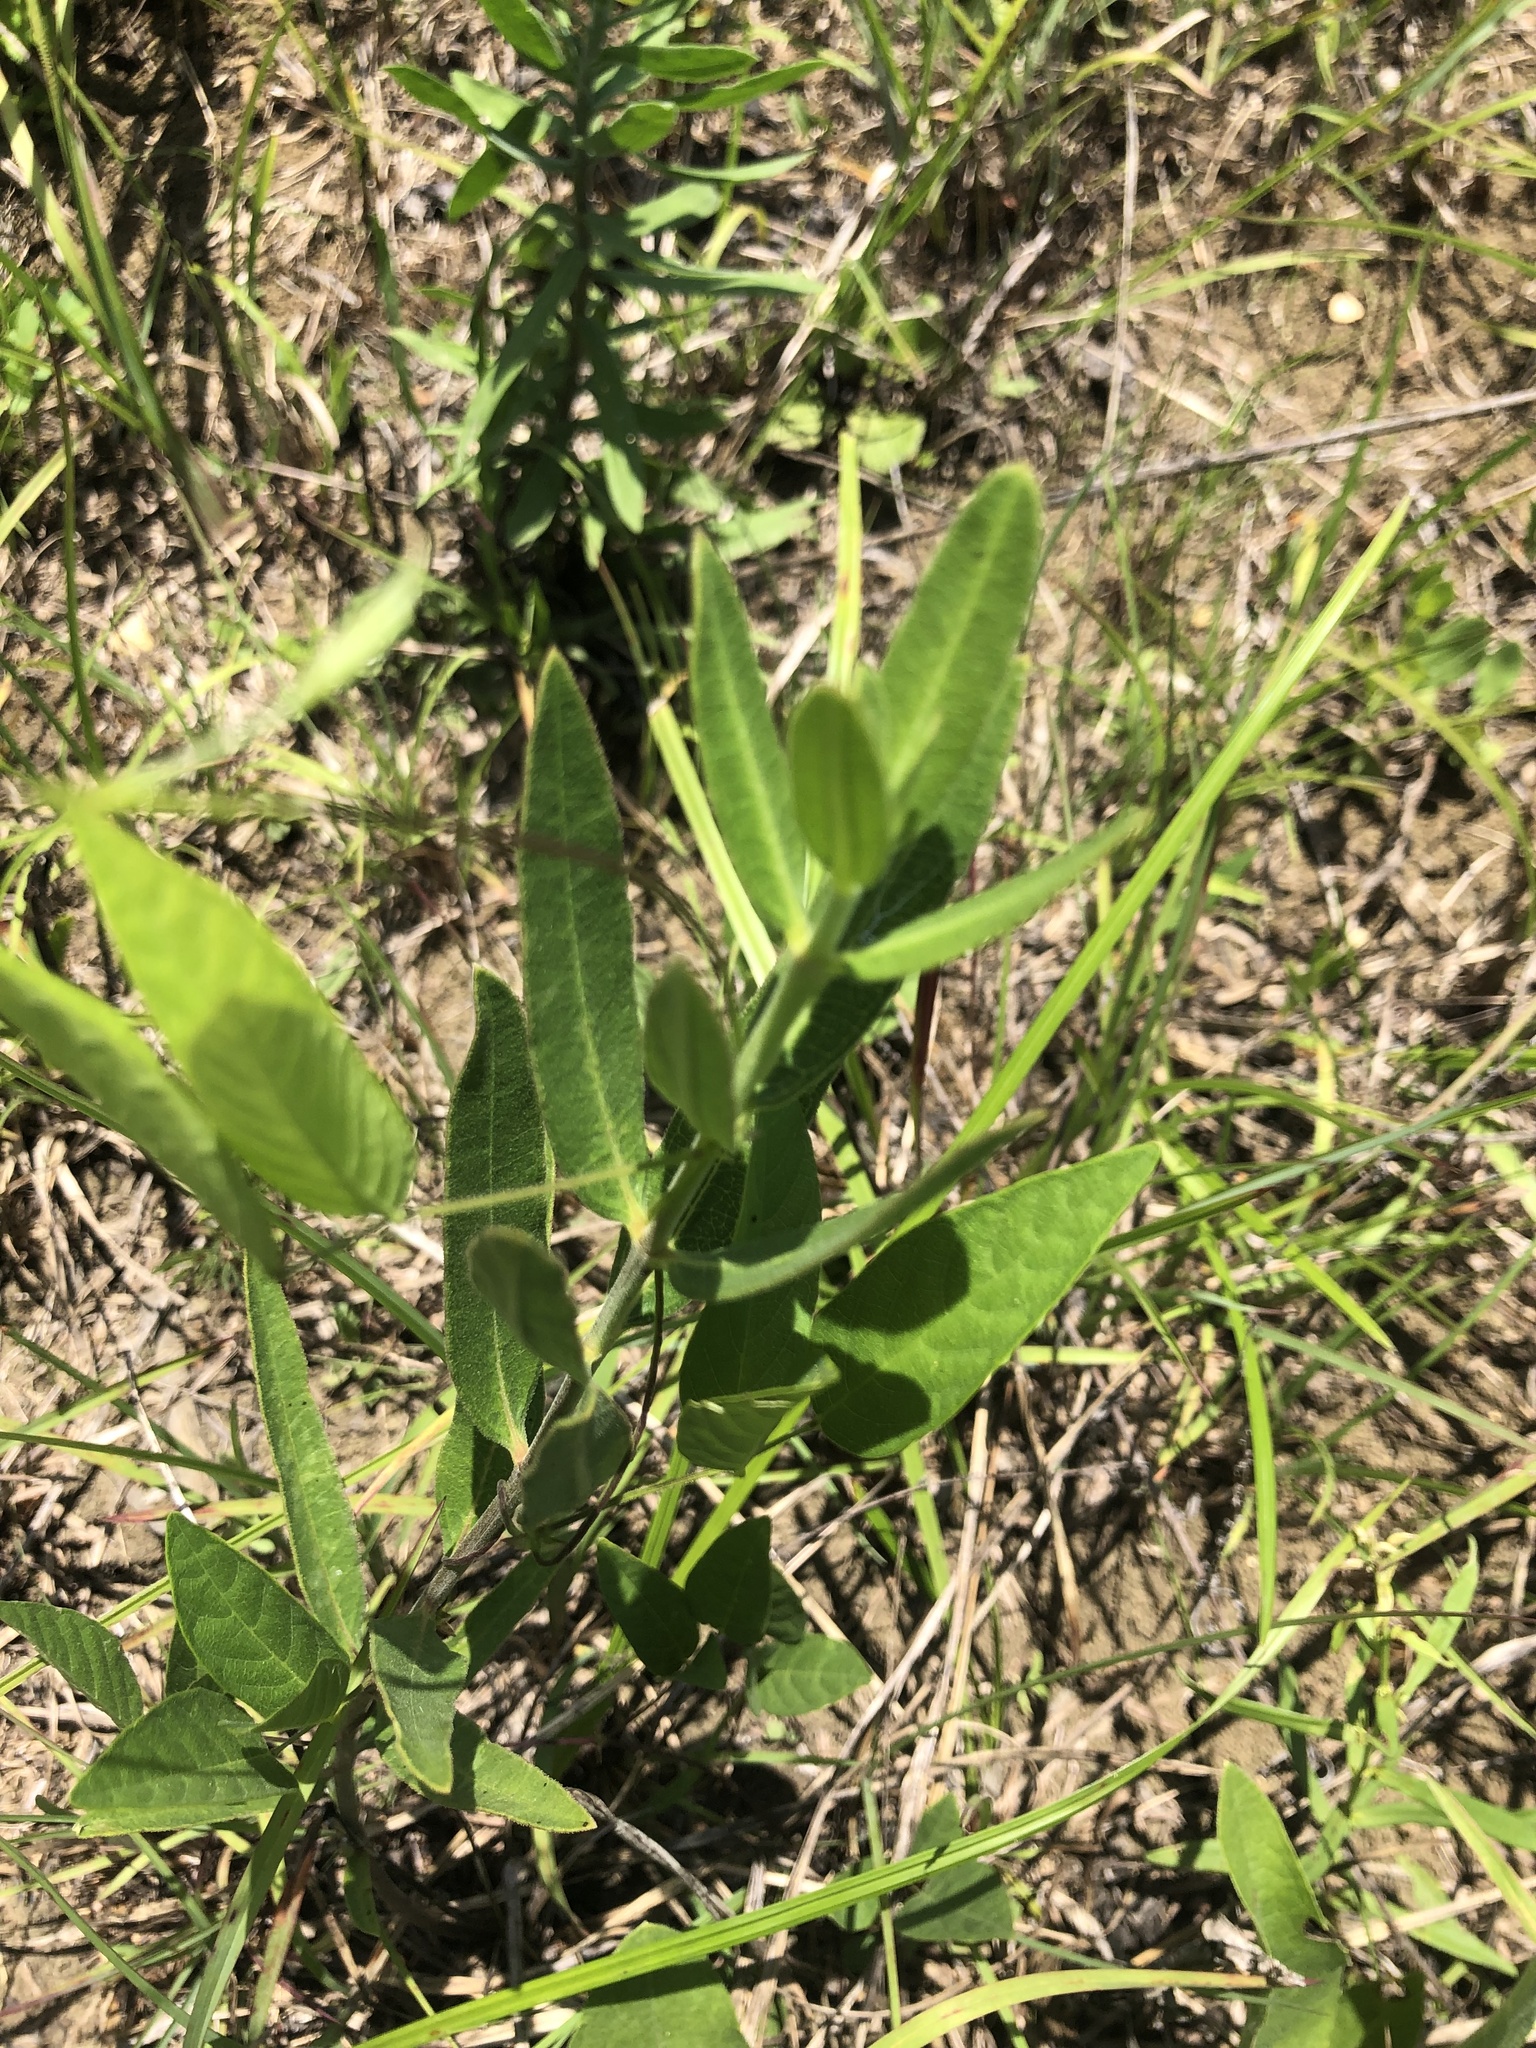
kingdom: Plantae
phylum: Tracheophyta
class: Magnoliopsida
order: Gentianales
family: Apocynaceae
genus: Asclepias
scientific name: Asclepias viridiflora
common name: Green comet milkweed
